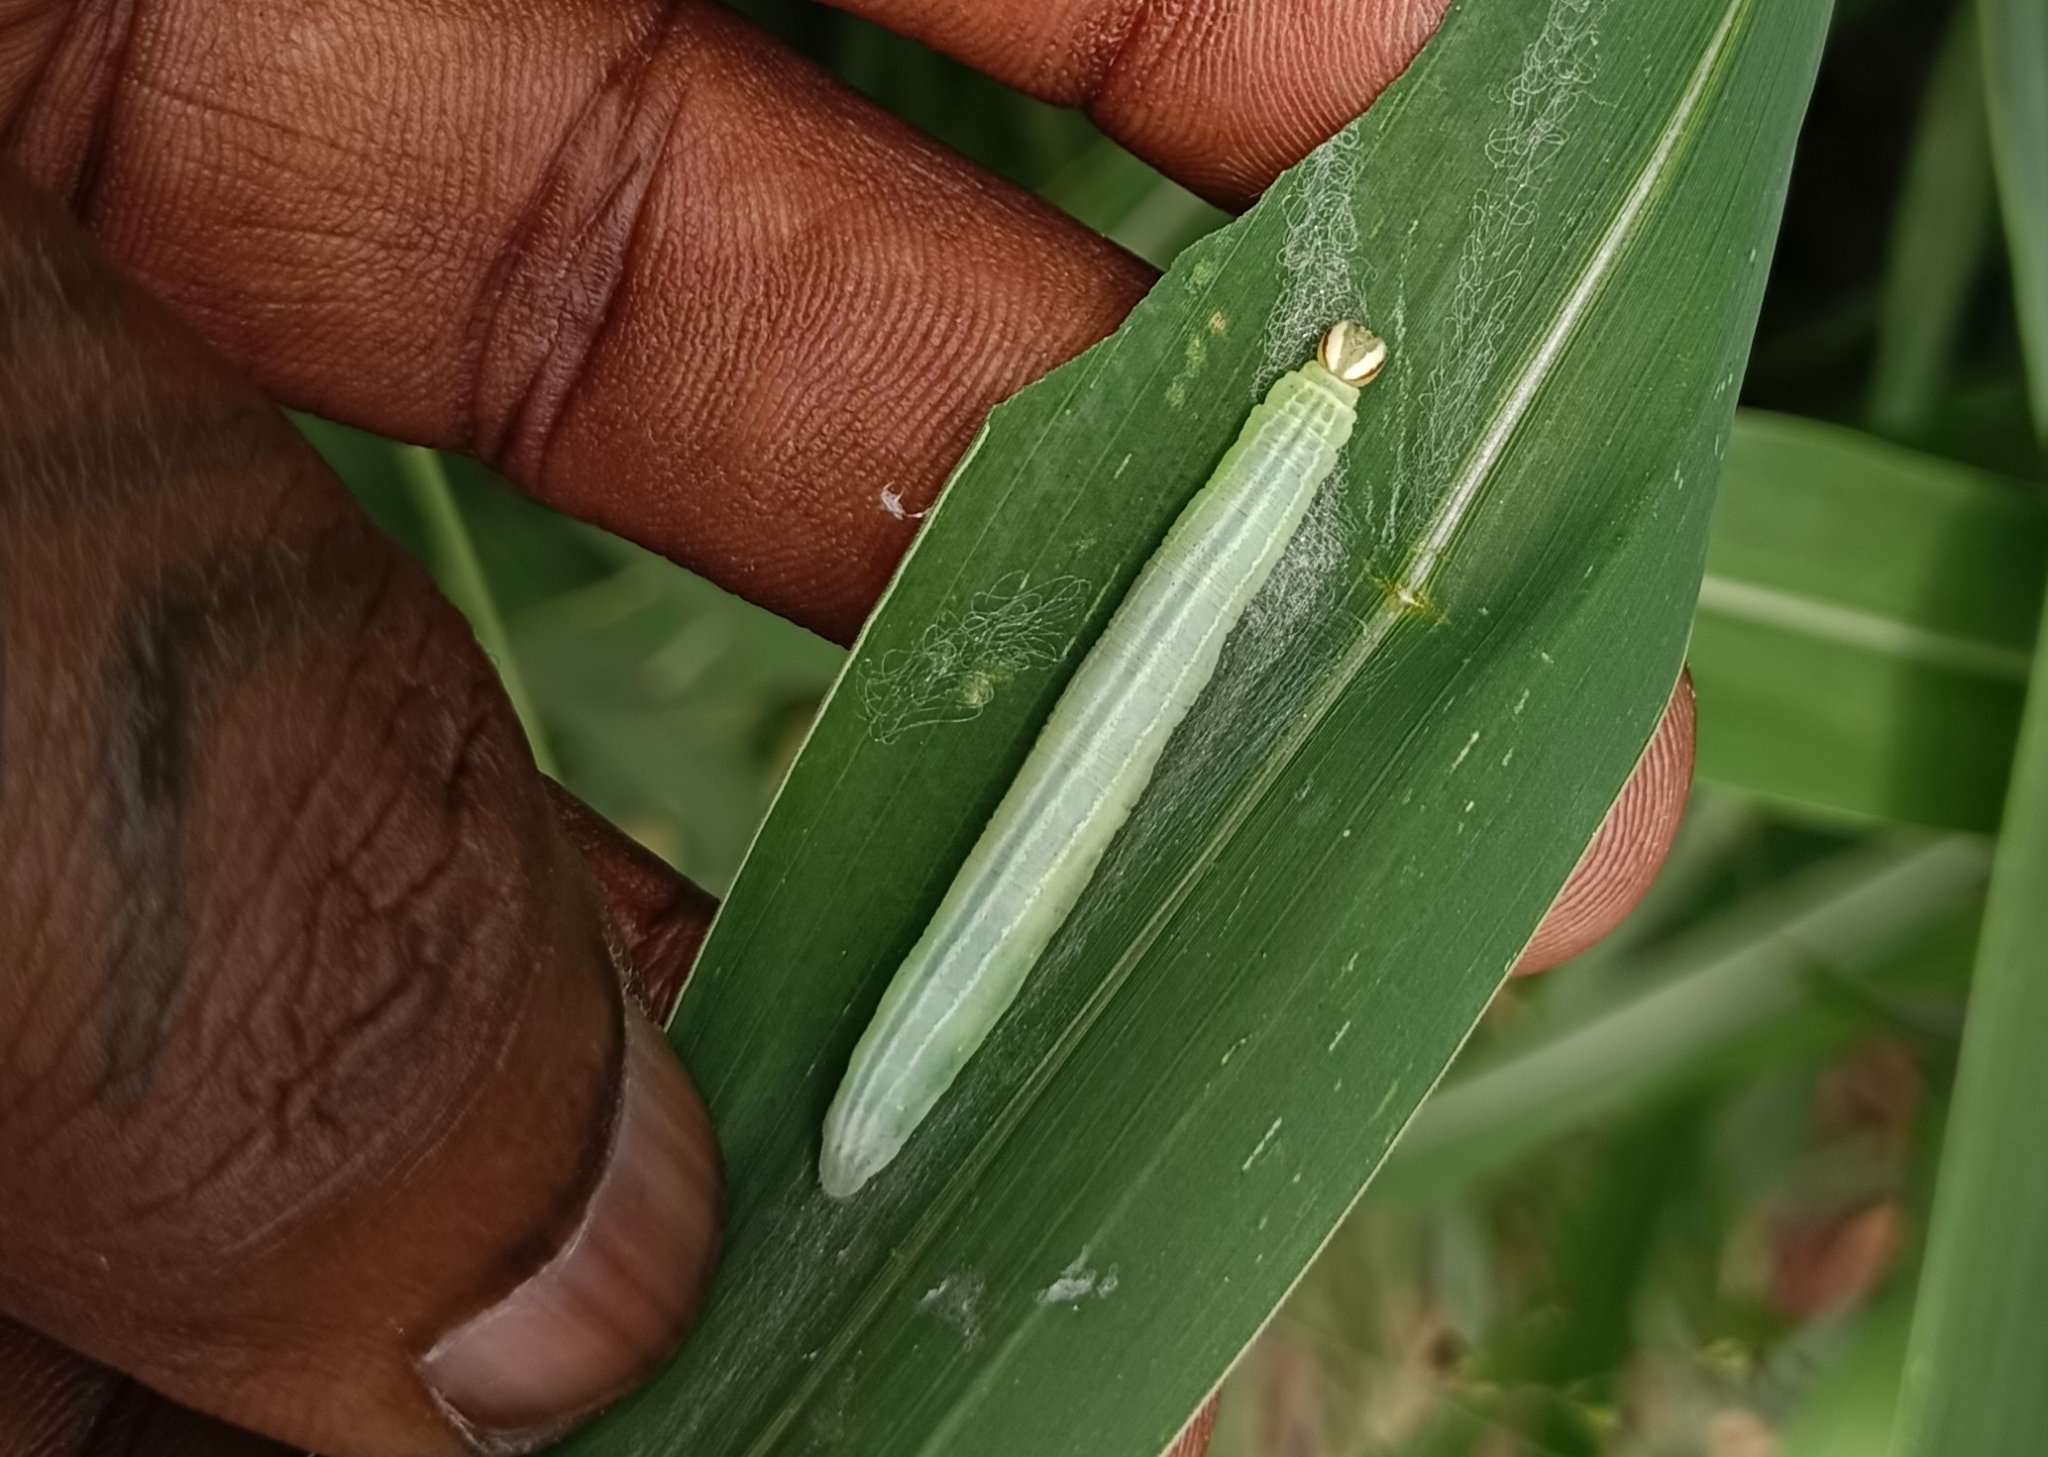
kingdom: Animalia
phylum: Arthropoda
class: Insecta
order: Lepidoptera
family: Hesperiidae
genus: Borbo
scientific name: Borbo cinnara
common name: Formosan swift
